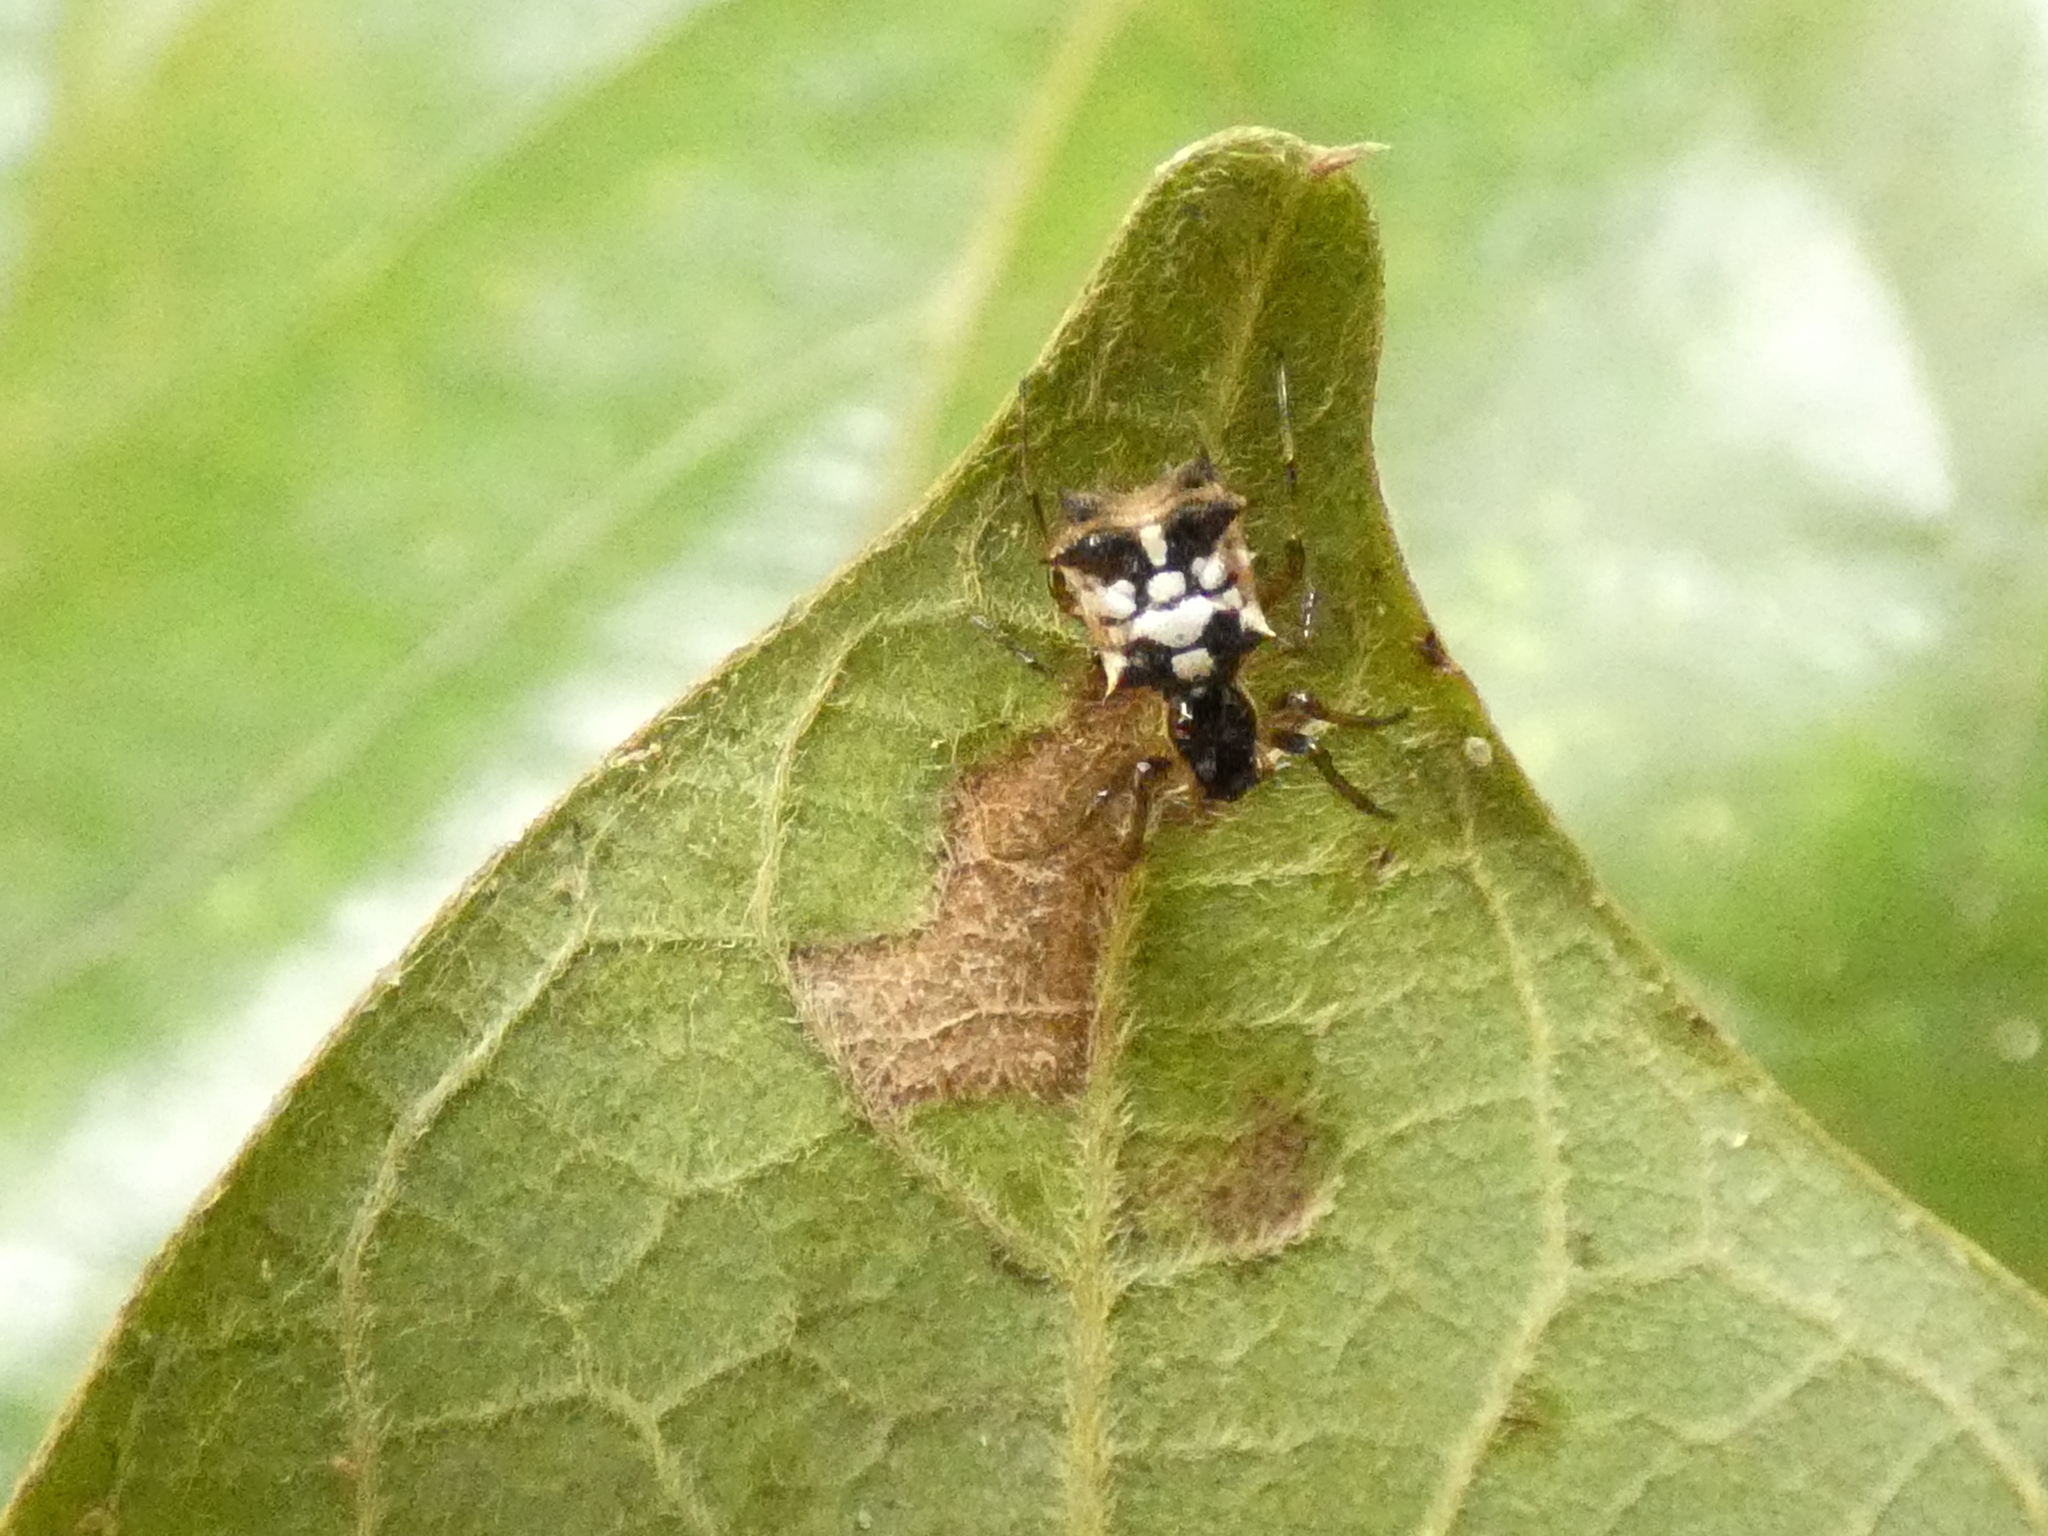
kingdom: Animalia
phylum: Arthropoda
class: Arachnida
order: Araneae
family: Araneidae
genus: Micrathena
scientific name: Micrathena picta
